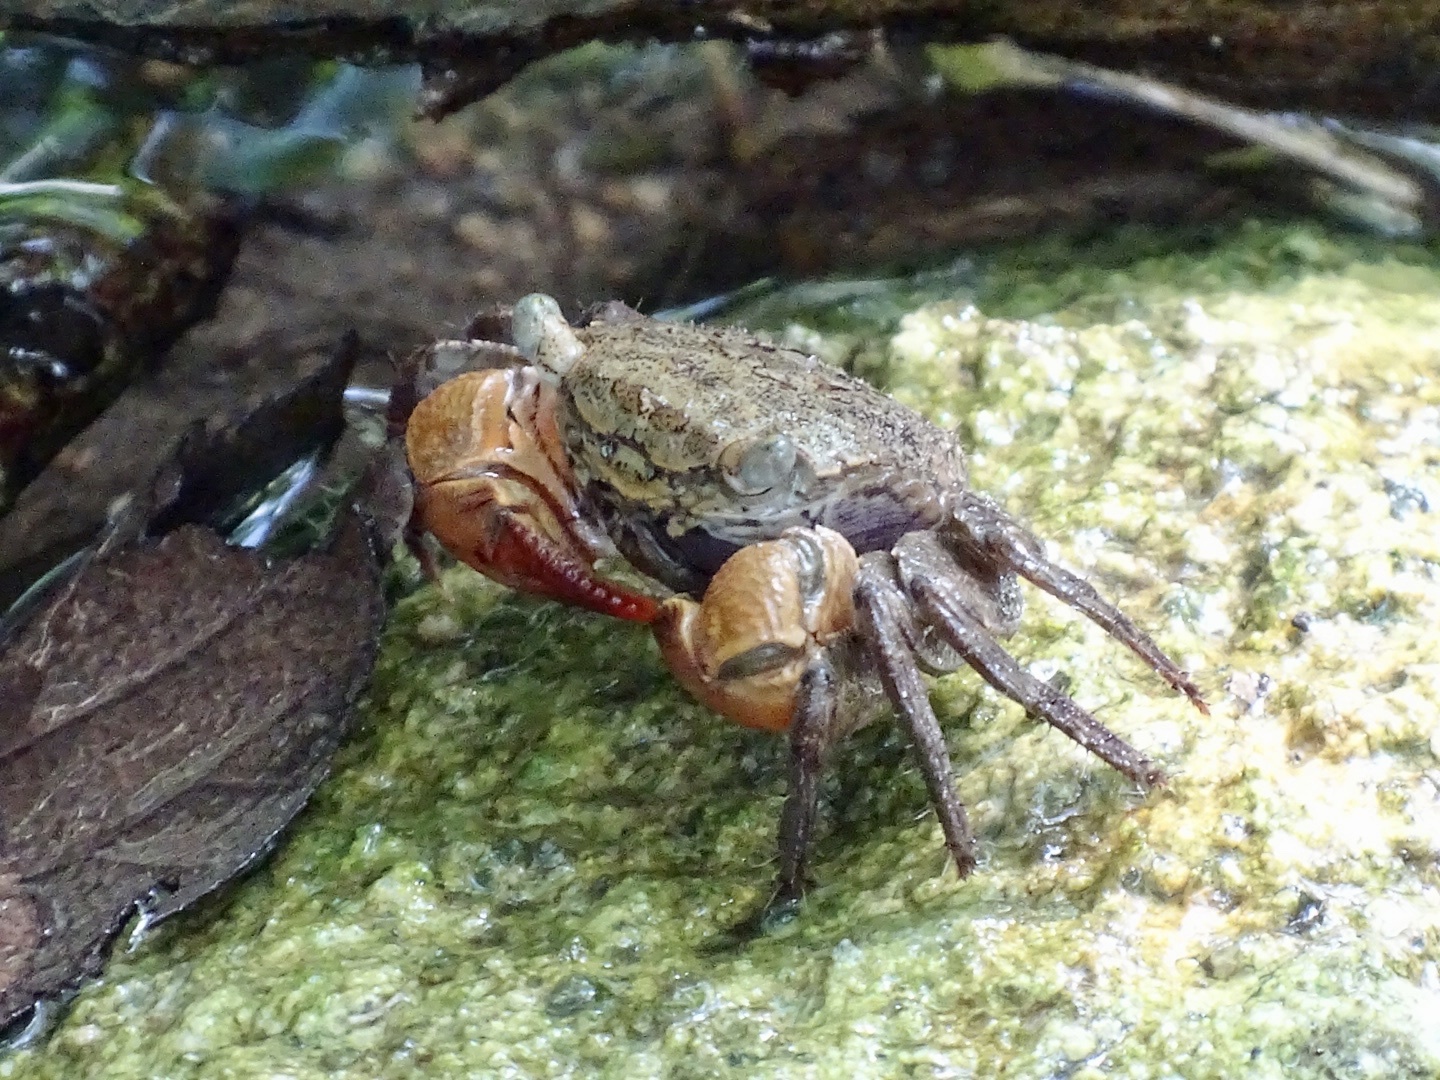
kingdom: Animalia
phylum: Arthropoda
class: Malacostraca
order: Decapoda
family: Sesarmidae
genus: Parasesarma
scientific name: Parasesarma bidens
